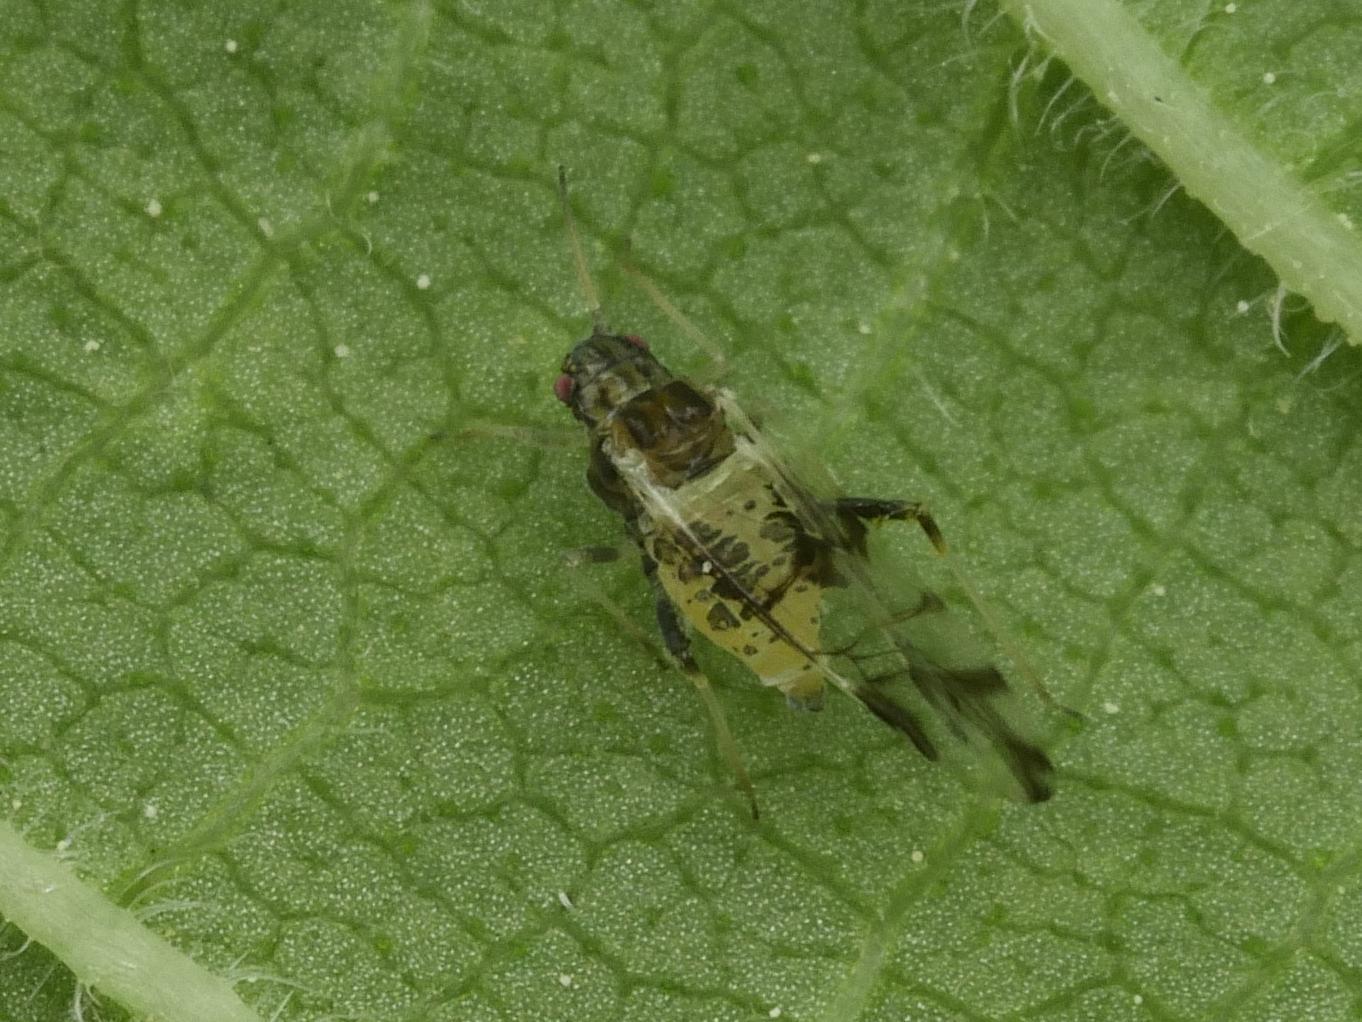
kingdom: Animalia
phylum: Arthropoda
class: Insecta
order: Hemiptera
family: Aphididae
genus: Tinocallis
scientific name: Tinocallis platani
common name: Elm aphid
